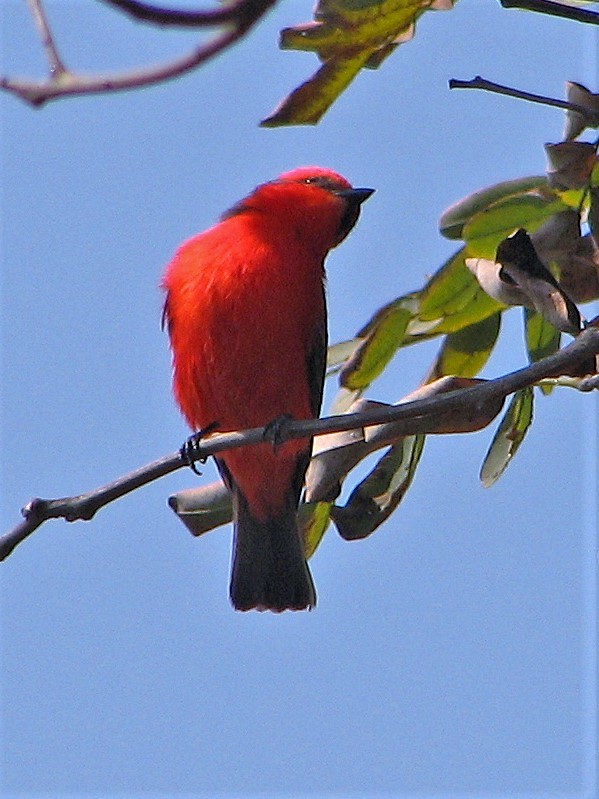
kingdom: Animalia
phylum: Chordata
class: Aves
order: Passeriformes
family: Tyrannidae
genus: Pyrocephalus
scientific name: Pyrocephalus rubinus
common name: Vermilion flycatcher
